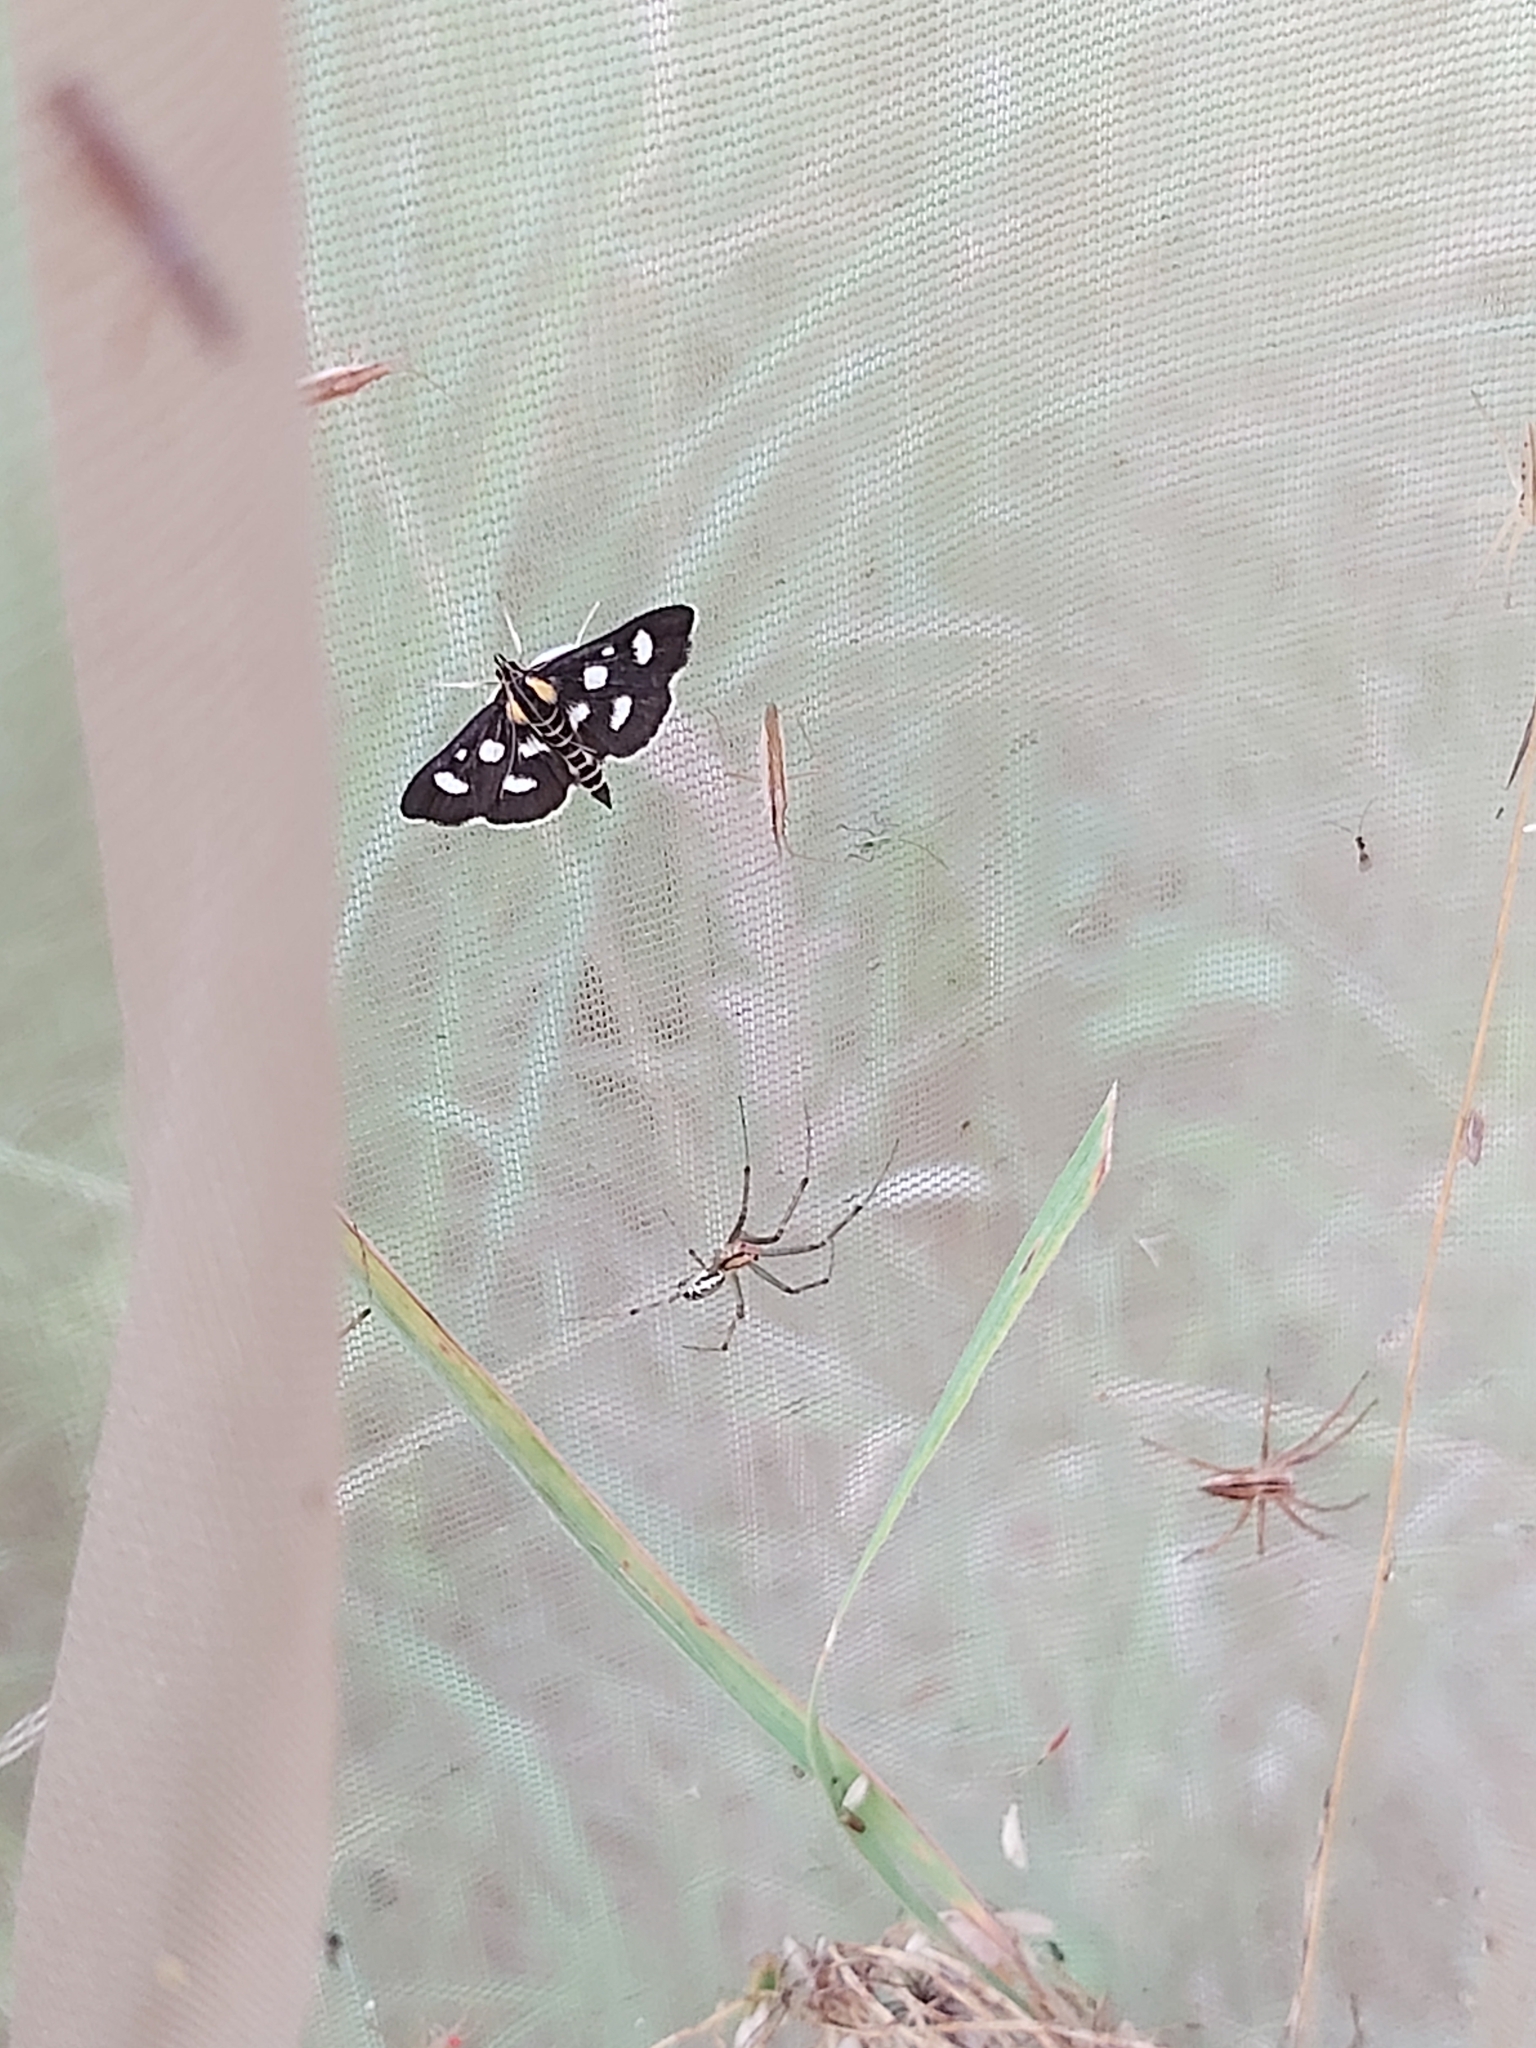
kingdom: Animalia
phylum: Arthropoda
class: Insecta
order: Lepidoptera
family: Crambidae
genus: Anania
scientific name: Anania funebris
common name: White-spotted sable moth
